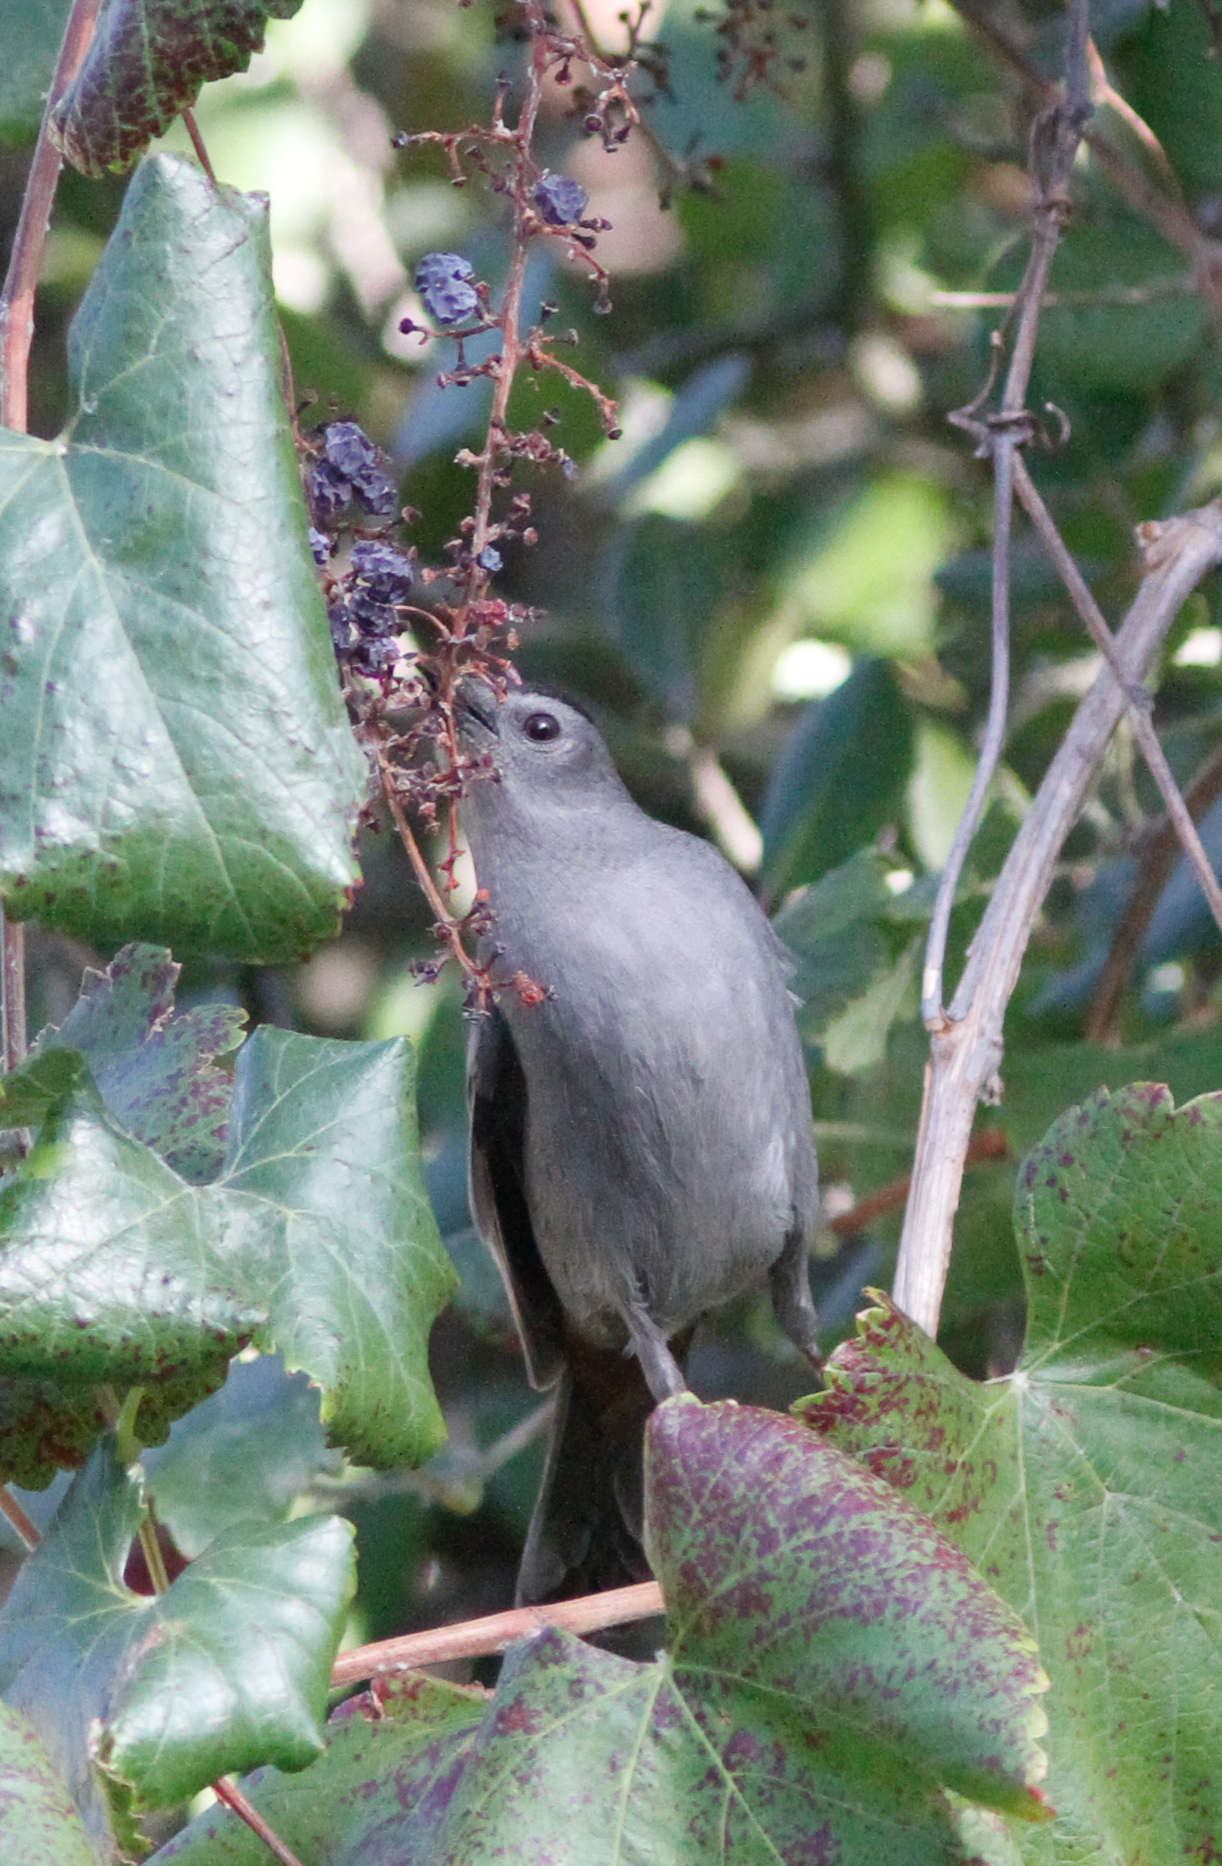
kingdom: Animalia
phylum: Chordata
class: Aves
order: Passeriformes
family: Mimidae
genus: Dumetella
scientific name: Dumetella carolinensis
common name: Gray catbird
